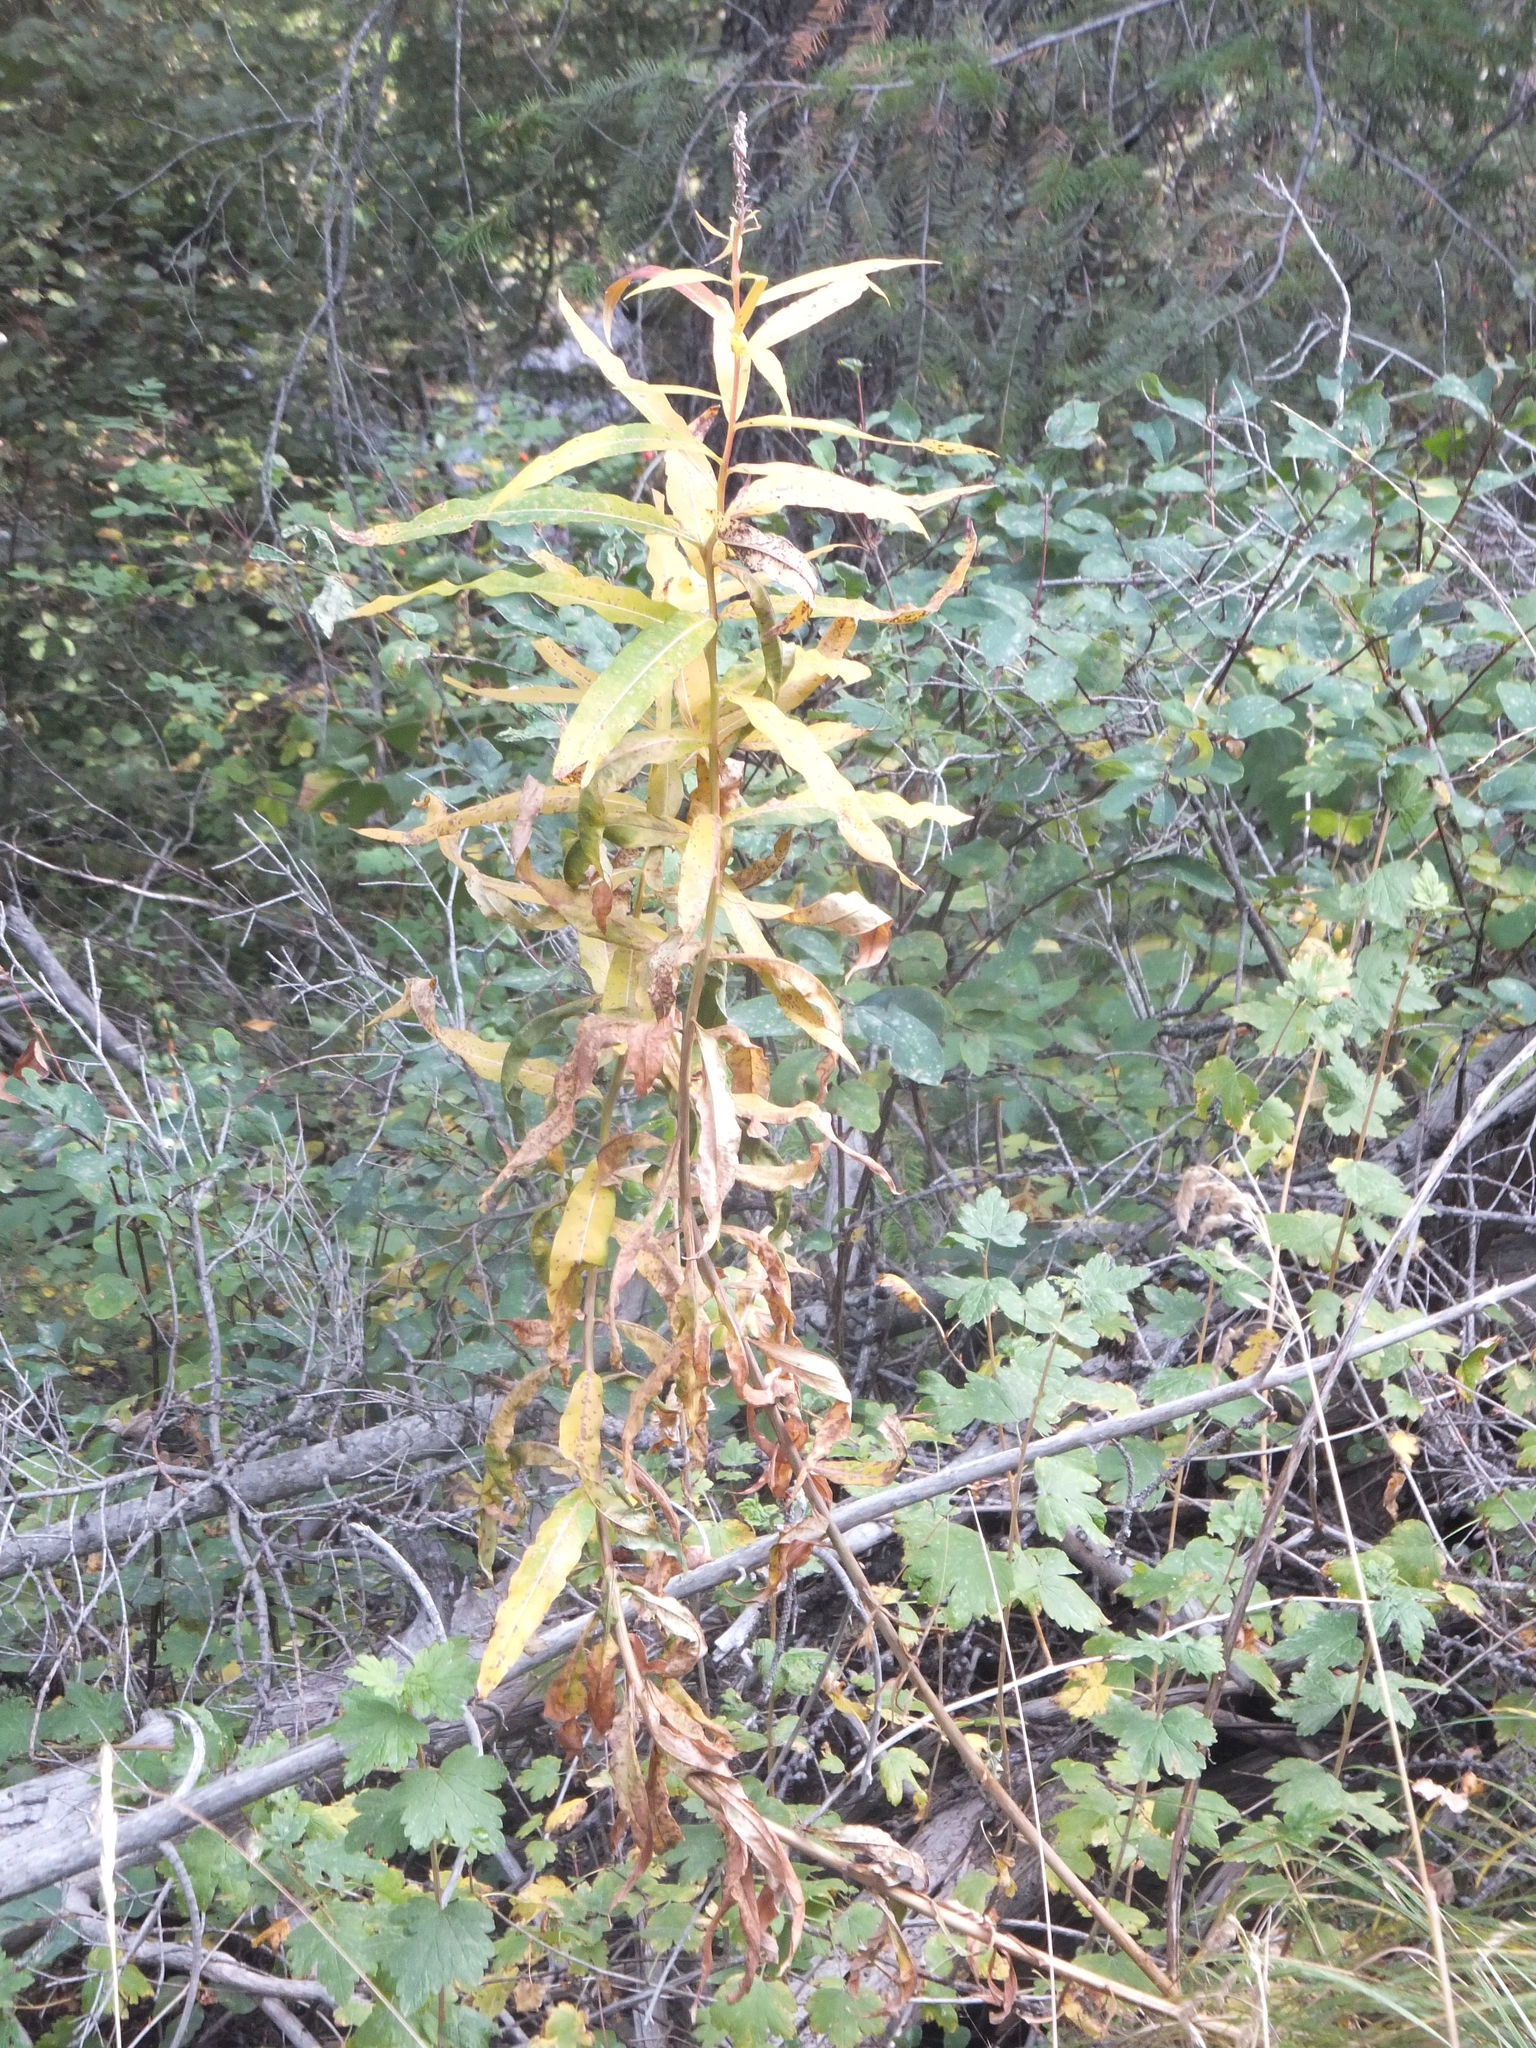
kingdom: Plantae
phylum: Tracheophyta
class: Magnoliopsida
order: Myrtales
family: Onagraceae
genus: Chamaenerion
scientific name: Chamaenerion angustifolium
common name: Fireweed
